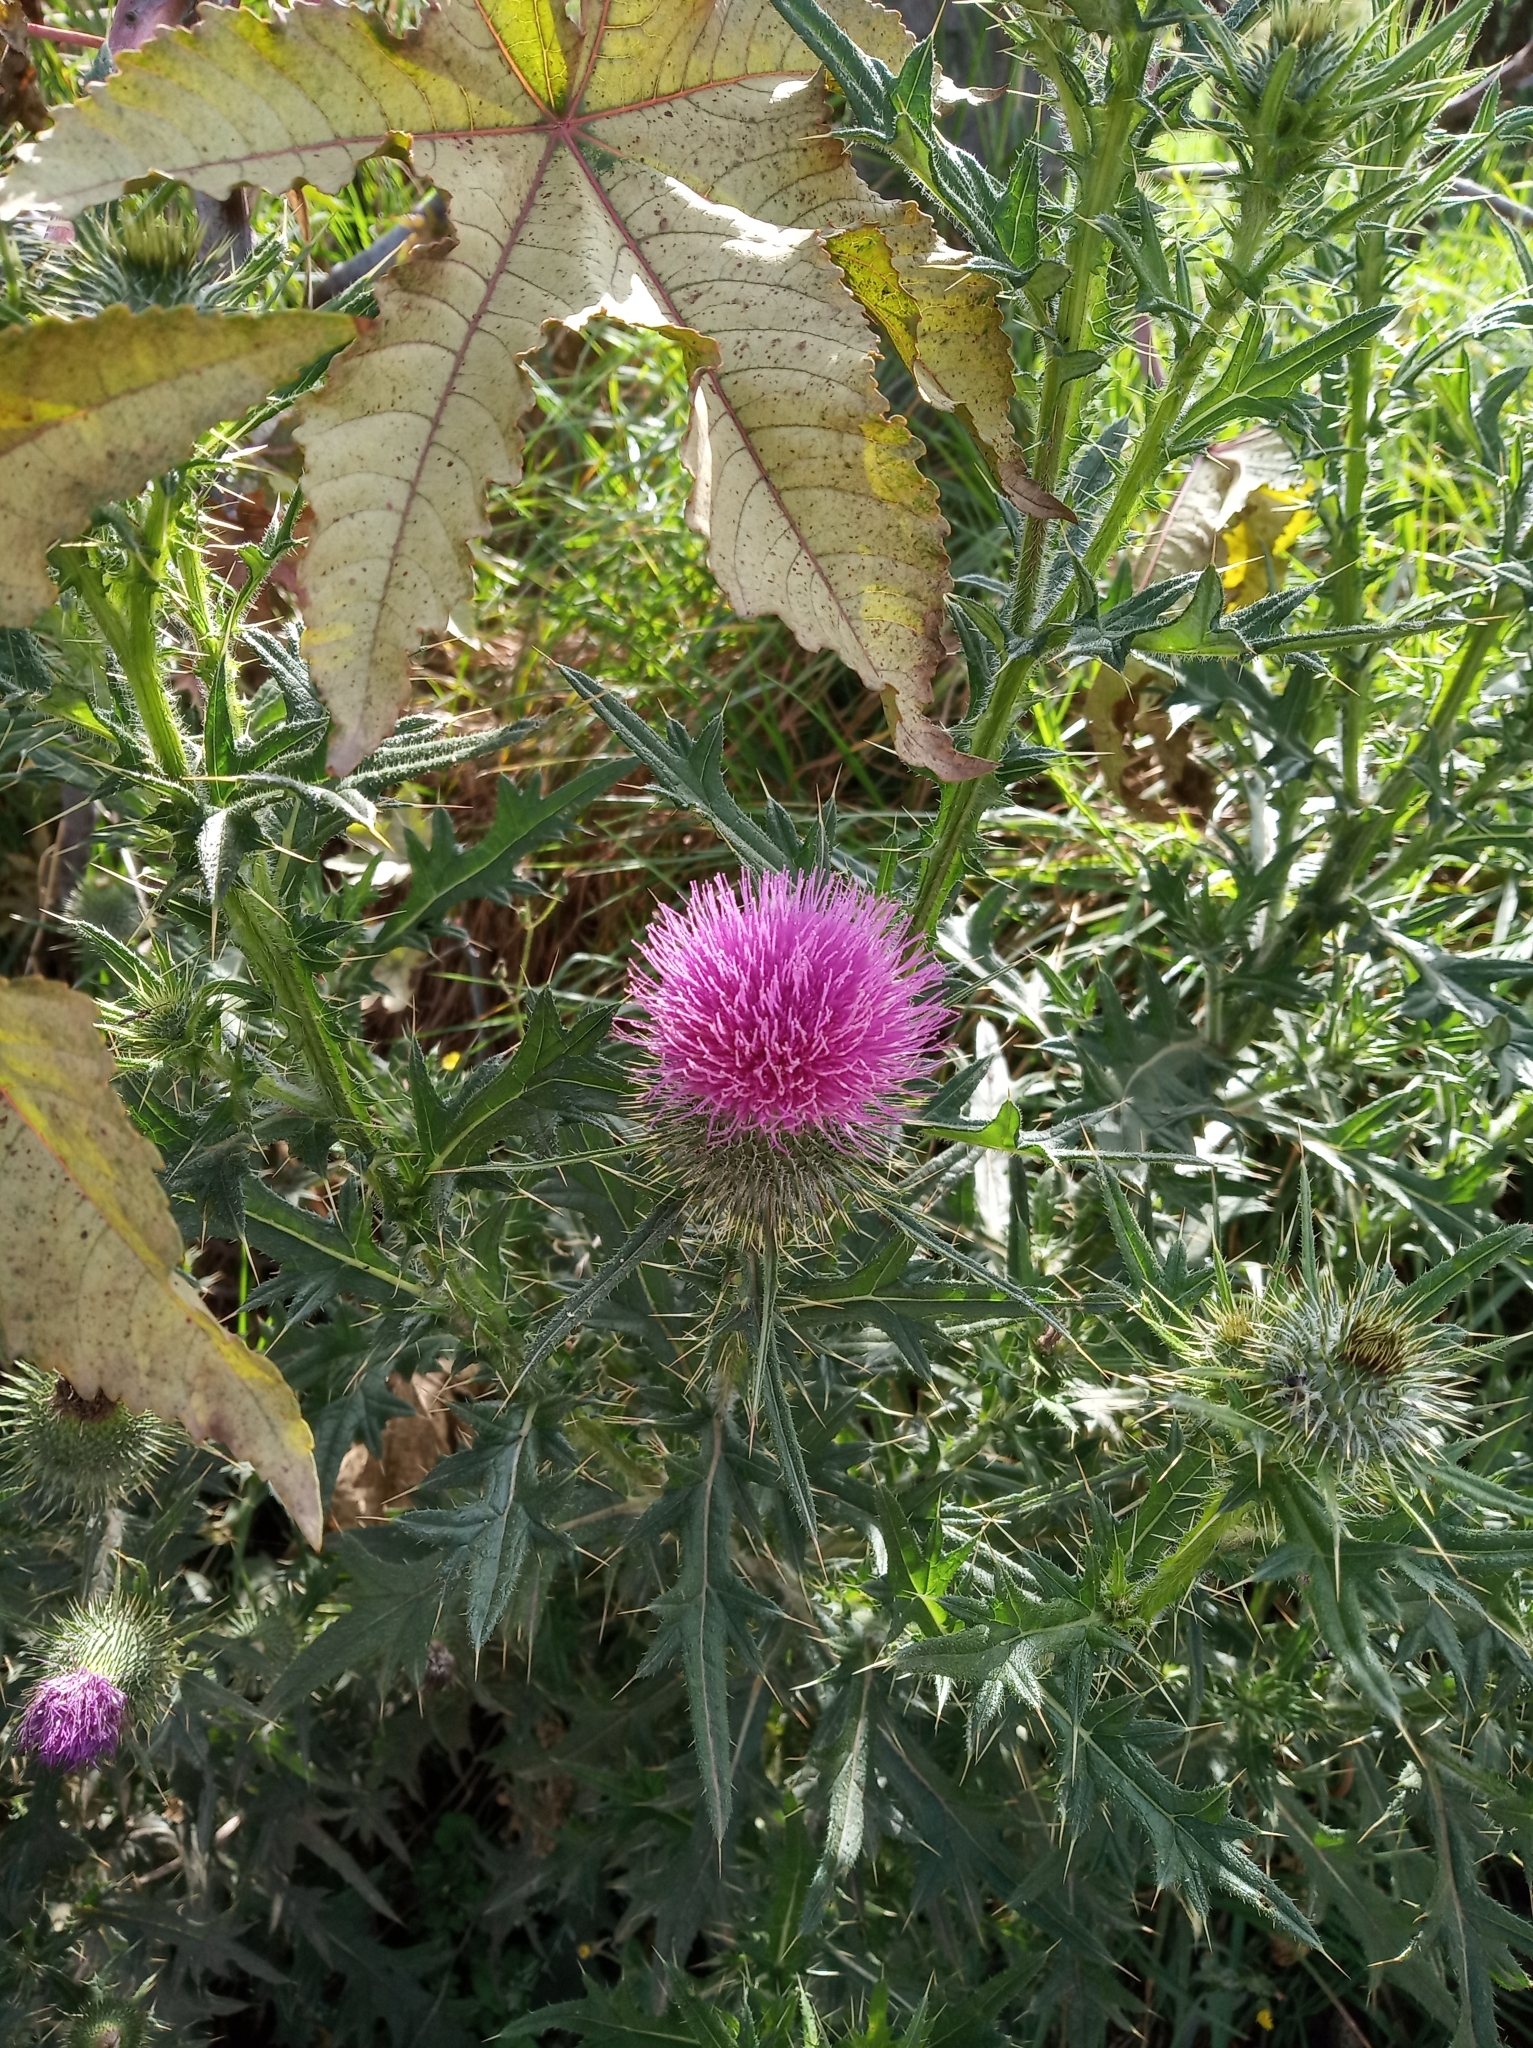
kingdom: Plantae
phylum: Tracheophyta
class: Magnoliopsida
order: Asterales
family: Asteraceae
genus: Cirsium
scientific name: Cirsium vulgare
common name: Bull thistle
